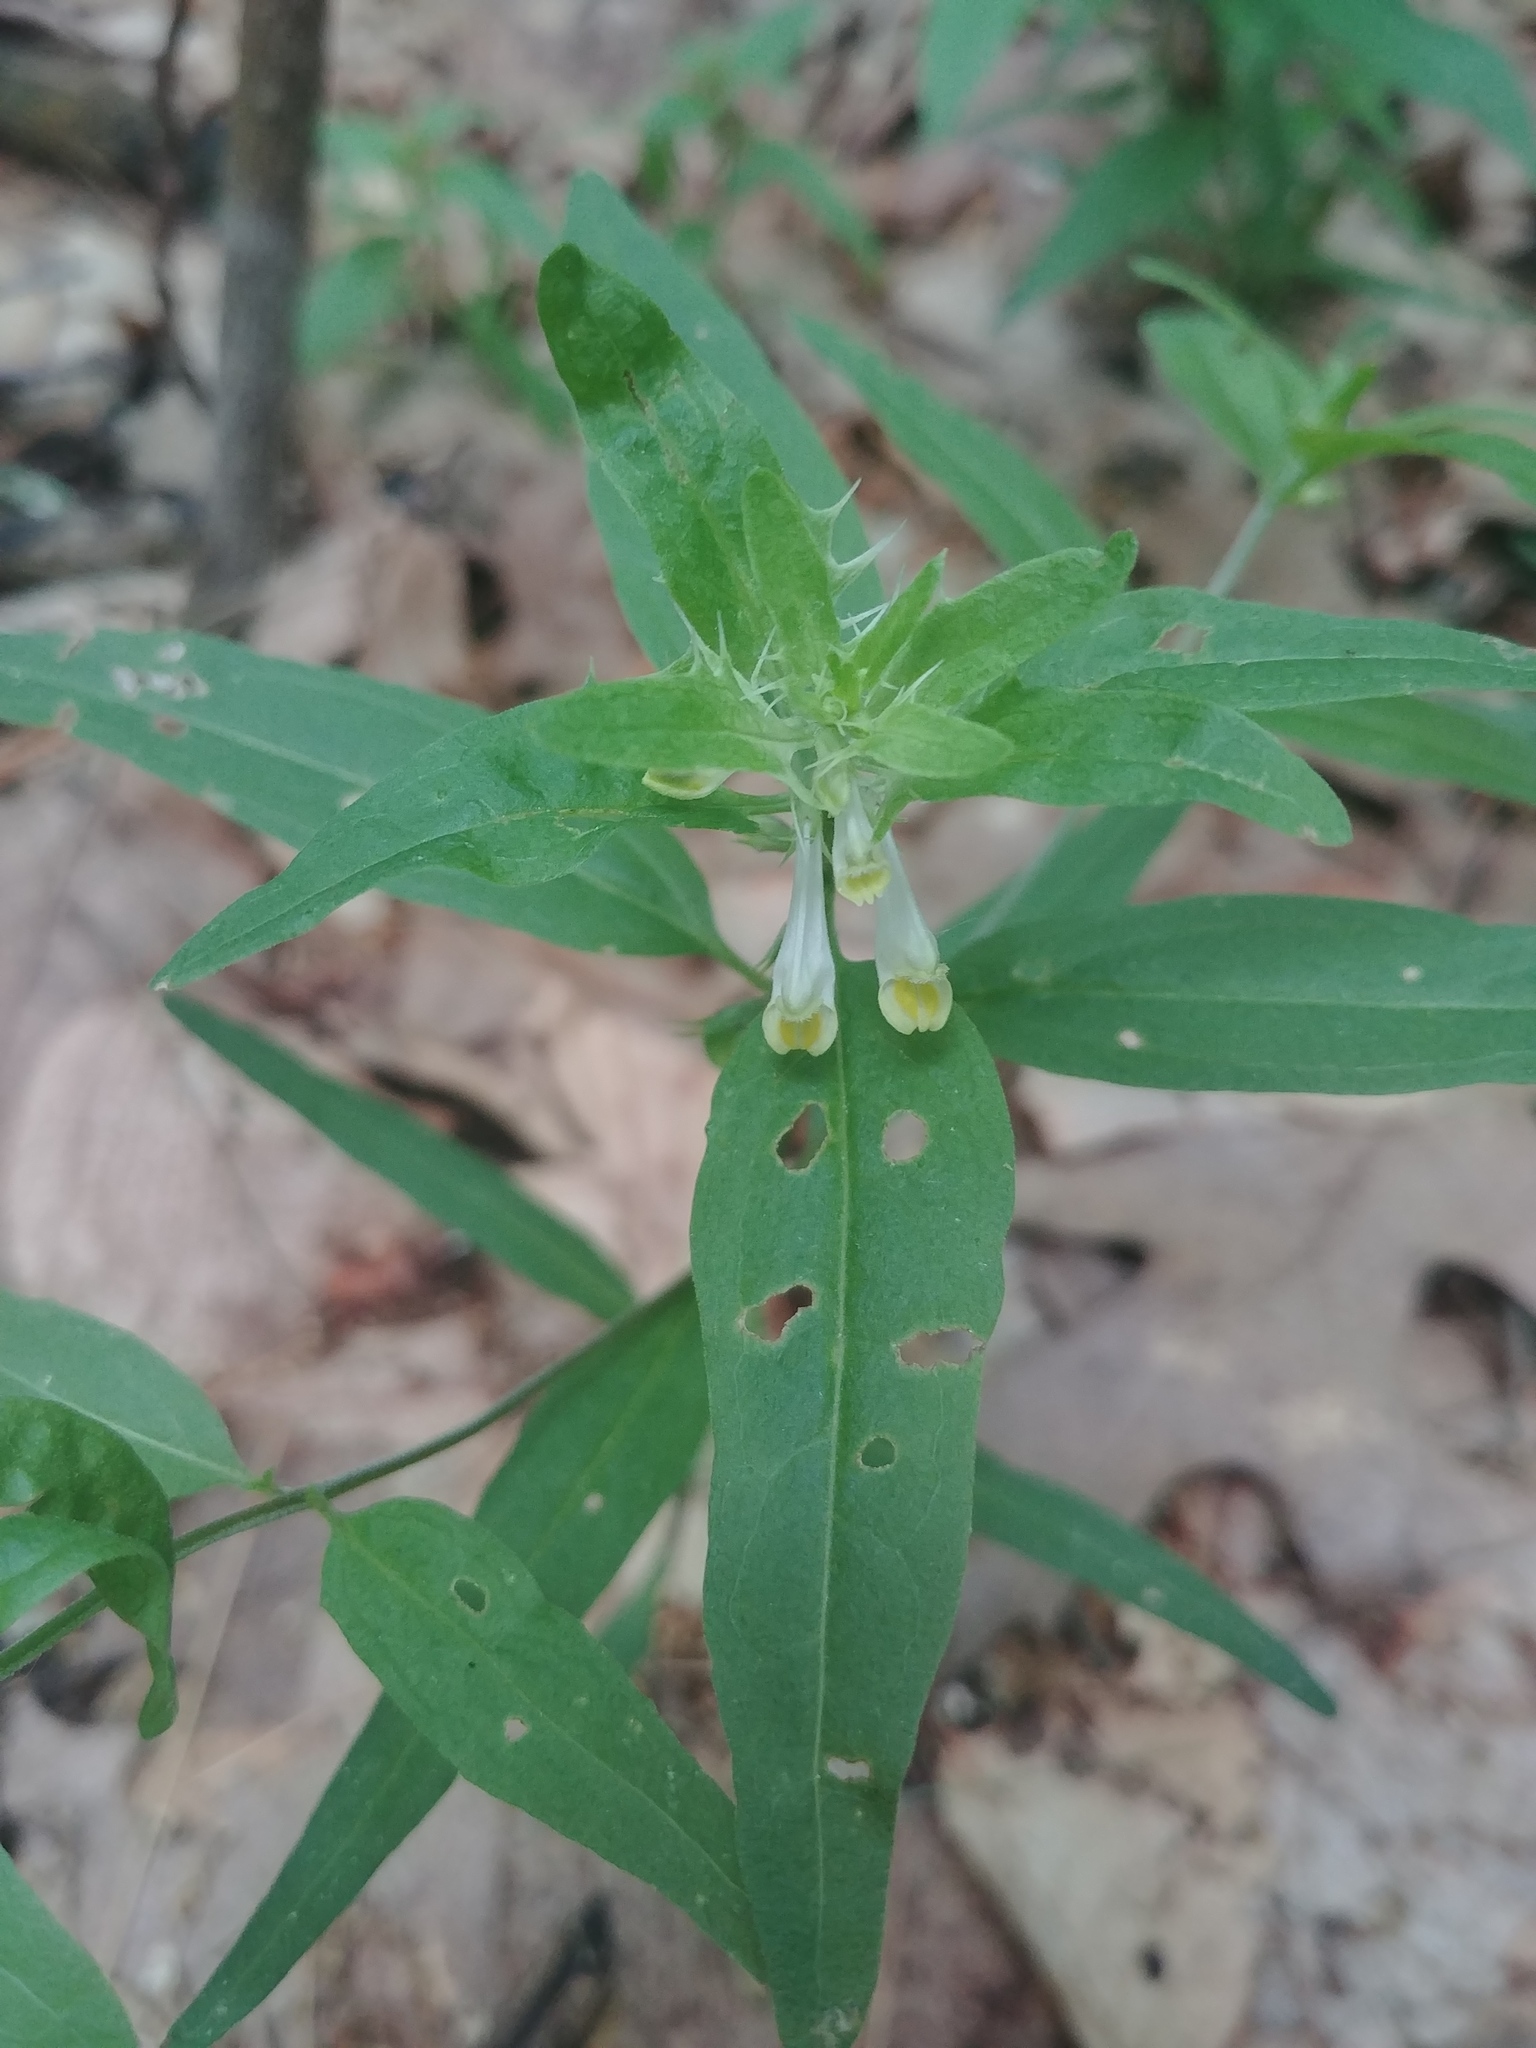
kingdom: Plantae
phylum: Tracheophyta
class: Magnoliopsida
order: Lamiales
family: Orobanchaceae
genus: Melampyrum
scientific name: Melampyrum lineare
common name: American cow-wheat
